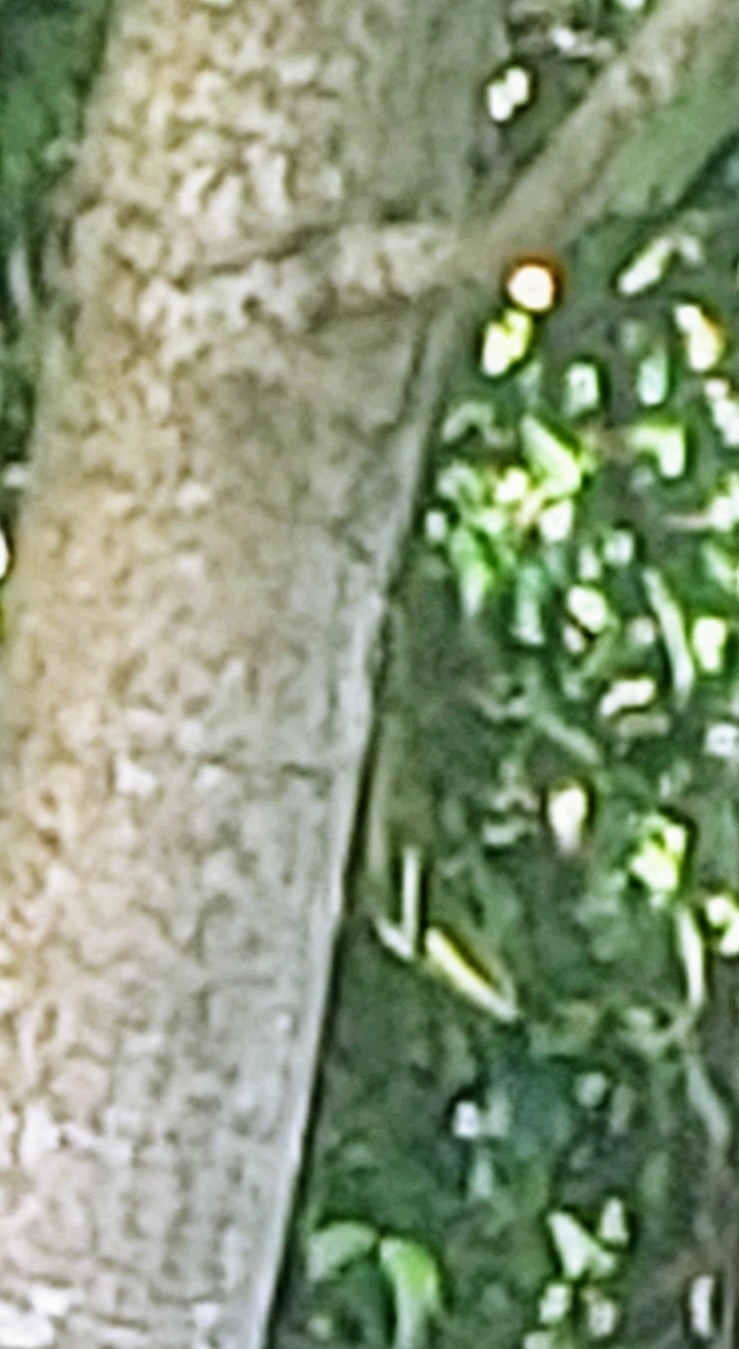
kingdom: Animalia
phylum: Chordata
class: Squamata
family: Dactyloidae
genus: Anolis
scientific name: Anolis equestris
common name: Knight anole
